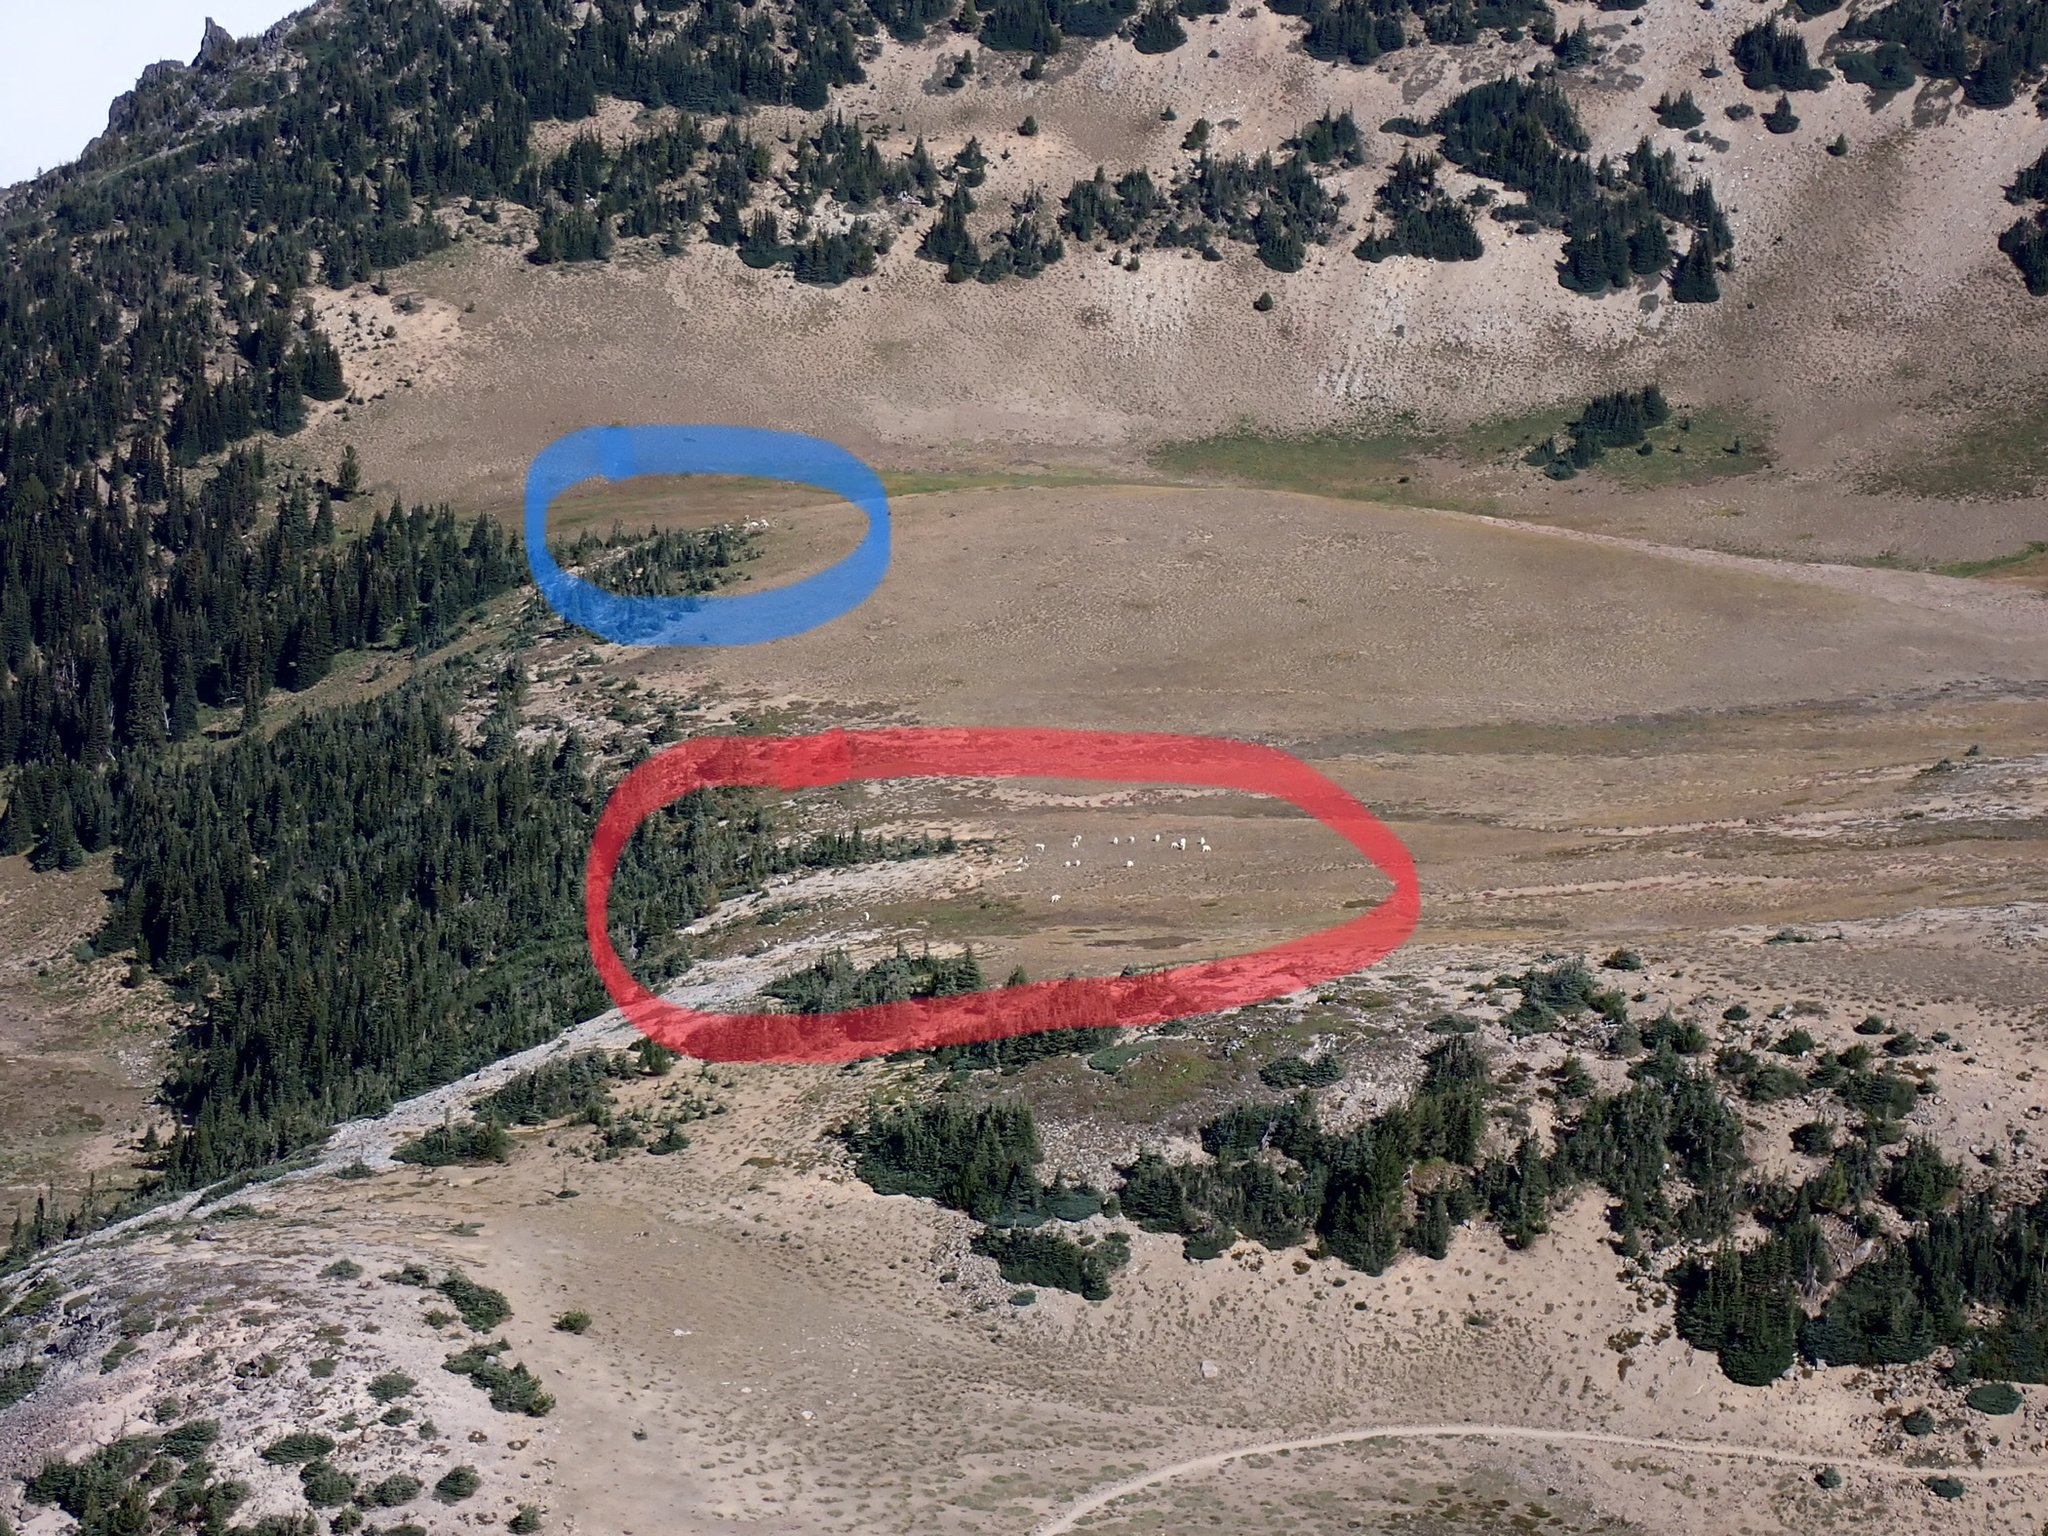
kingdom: Animalia
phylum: Chordata
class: Mammalia
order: Artiodactyla
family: Bovidae
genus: Oreamnos
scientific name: Oreamnos americanus
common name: Mountain goat
